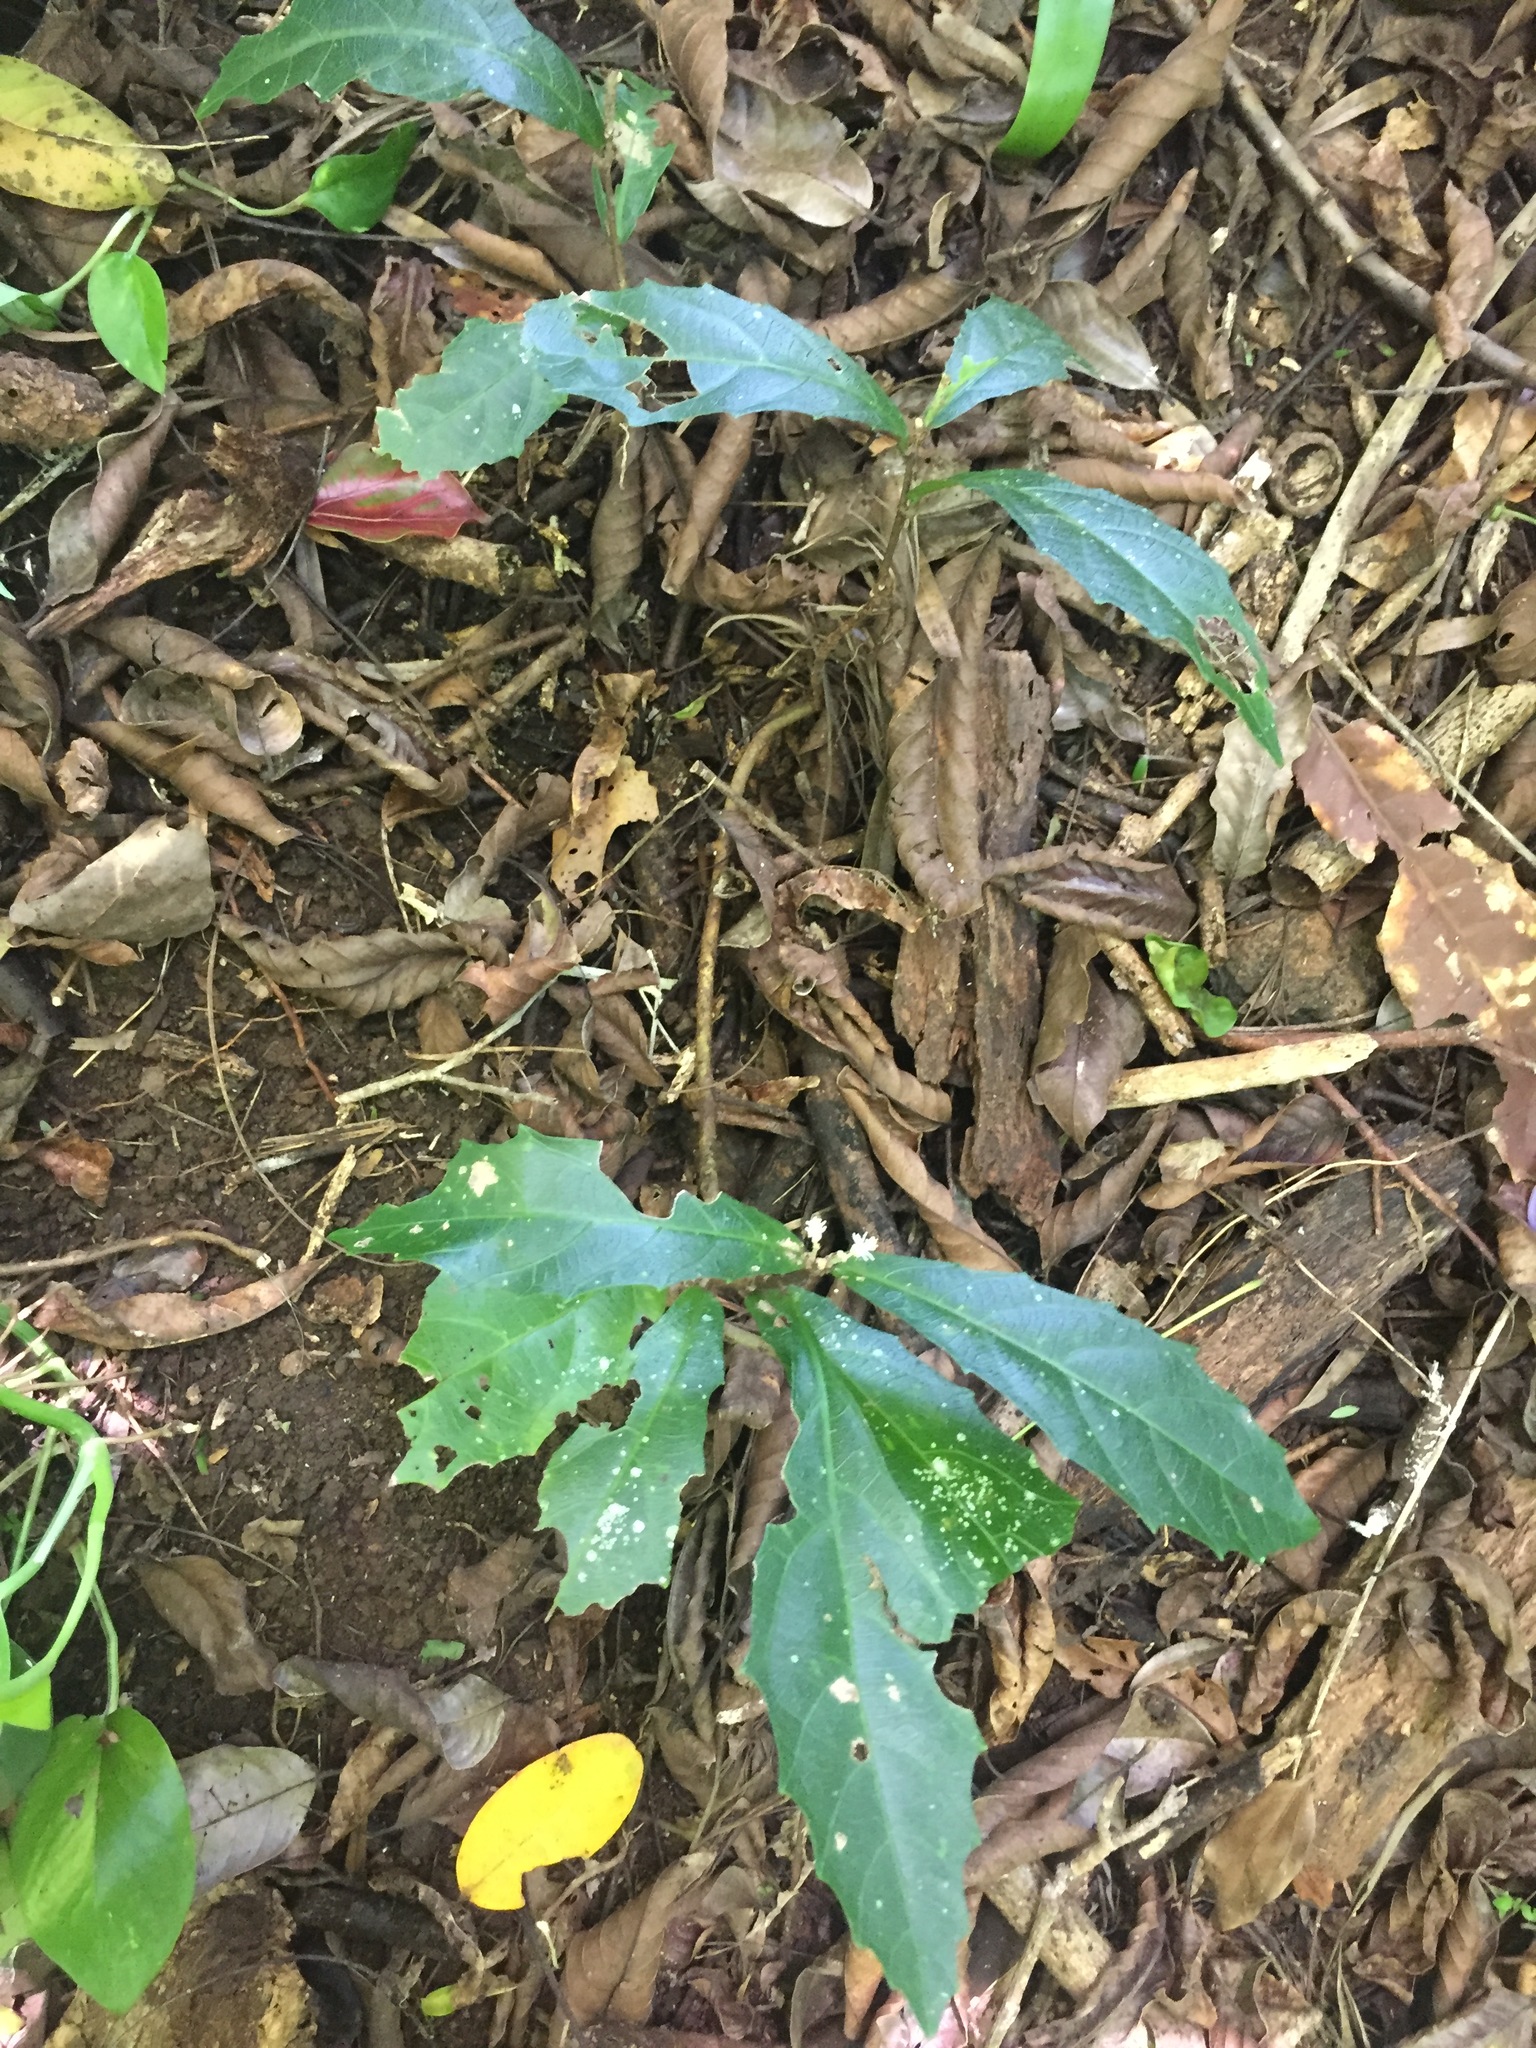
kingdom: Plantae
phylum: Tracheophyta
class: Magnoliopsida
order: Malpighiales
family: Euphorbiaceae
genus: Mallotus
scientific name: Mallotus megadontus
